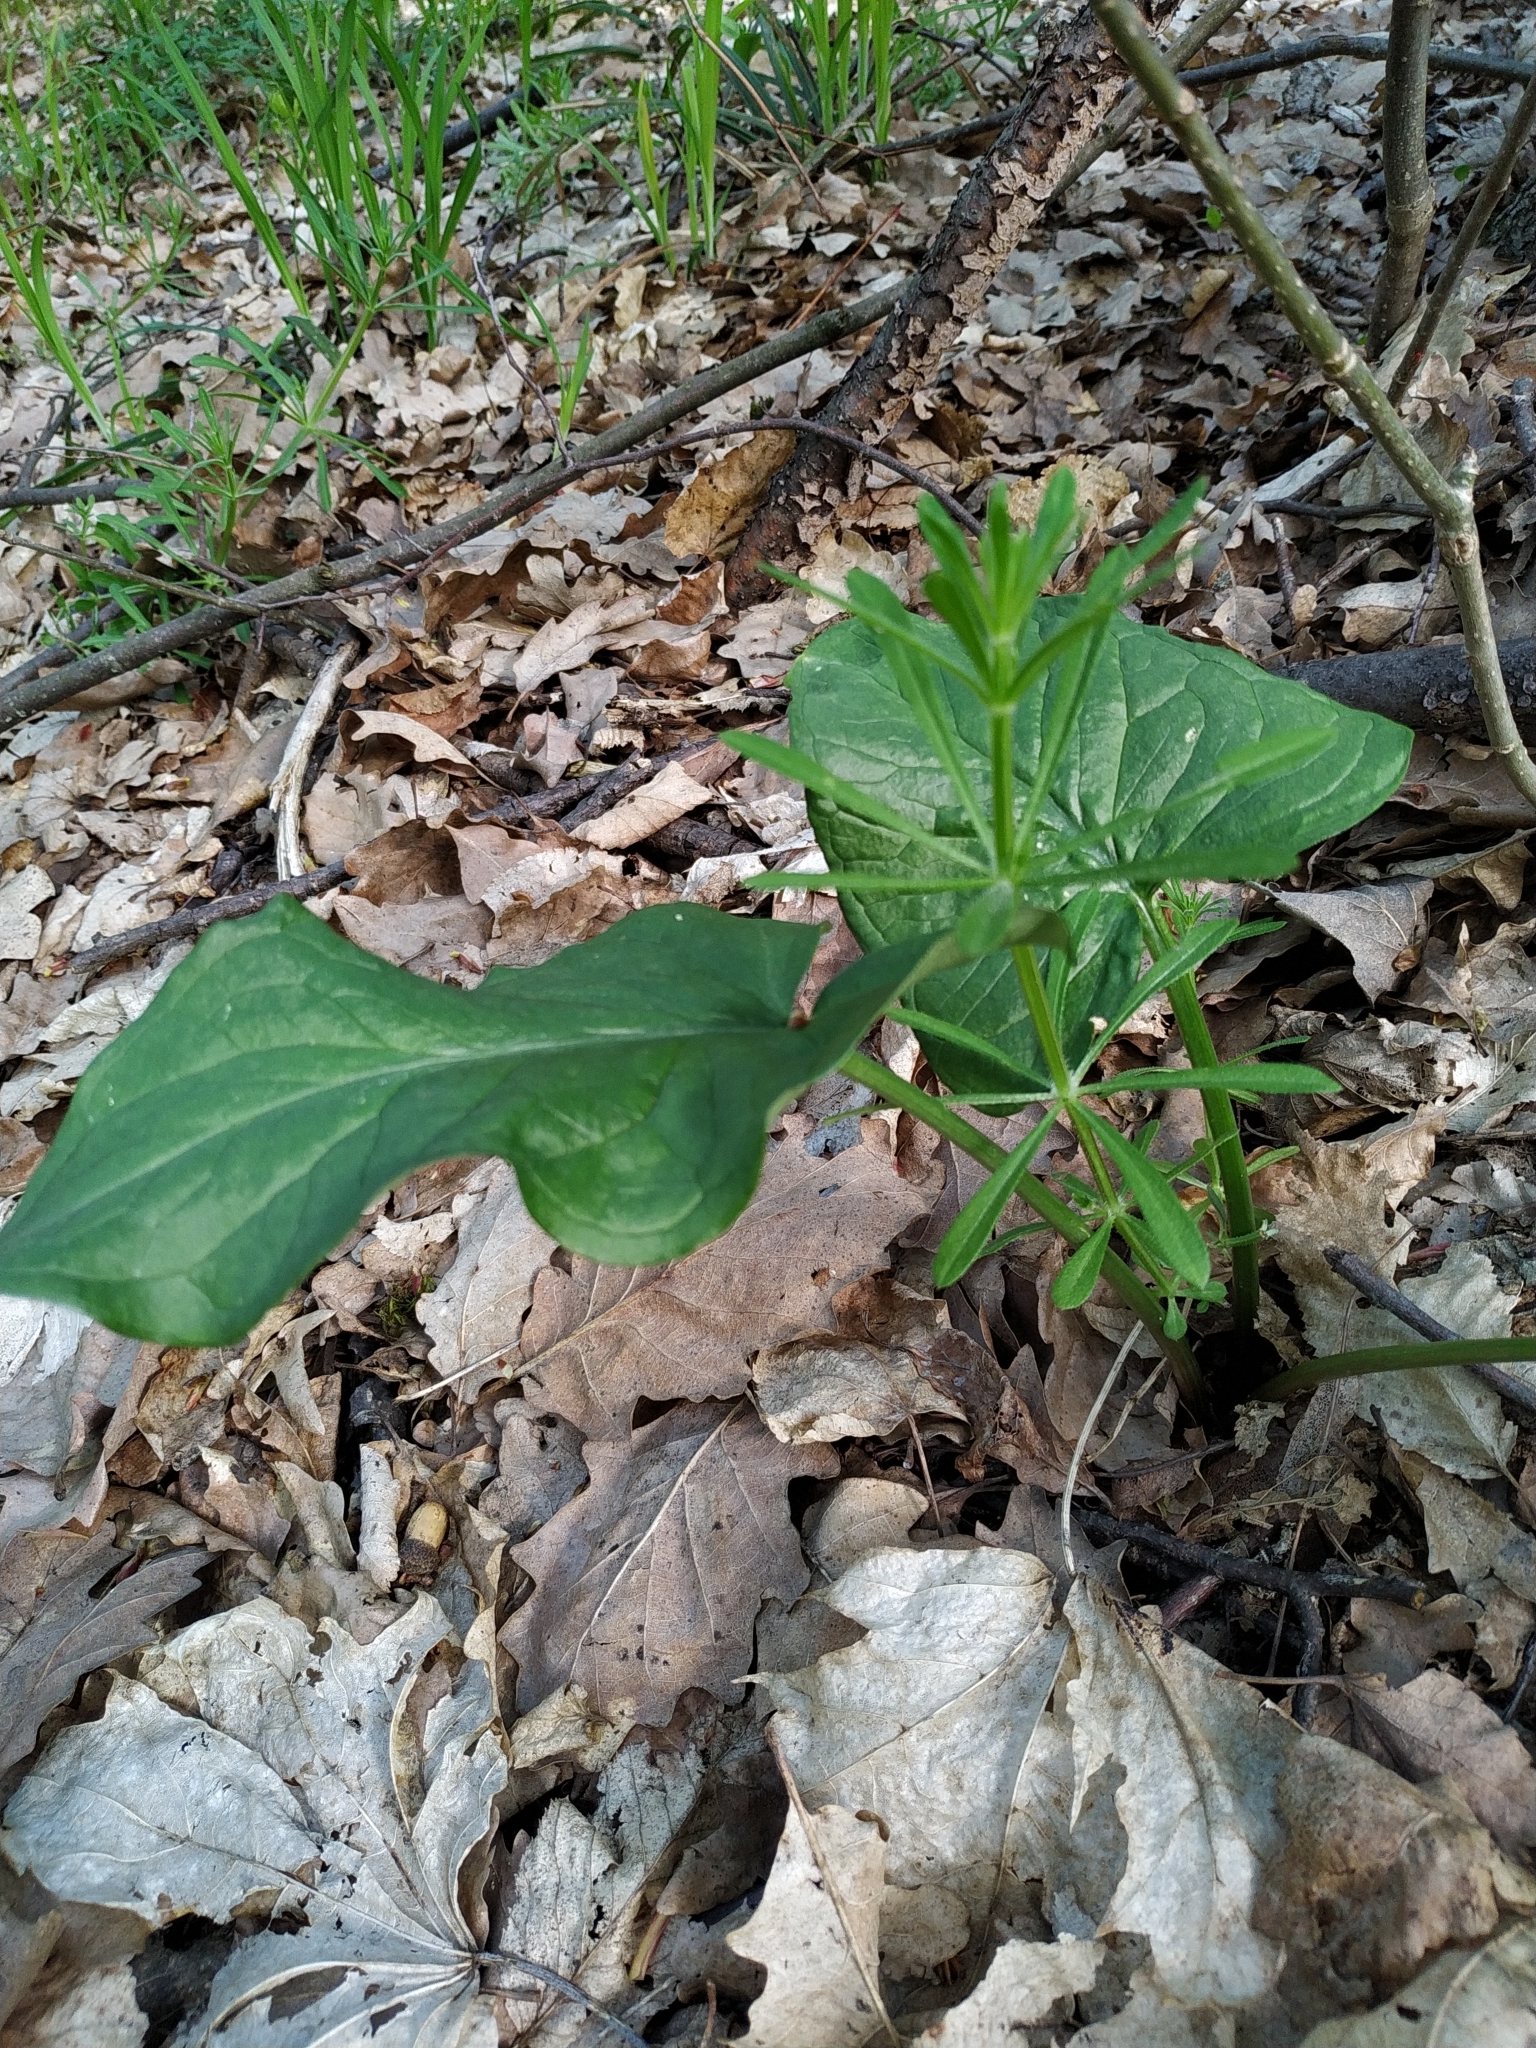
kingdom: Plantae
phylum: Tracheophyta
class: Liliopsida
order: Alismatales
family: Araceae
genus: Arum
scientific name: Arum besserianum
